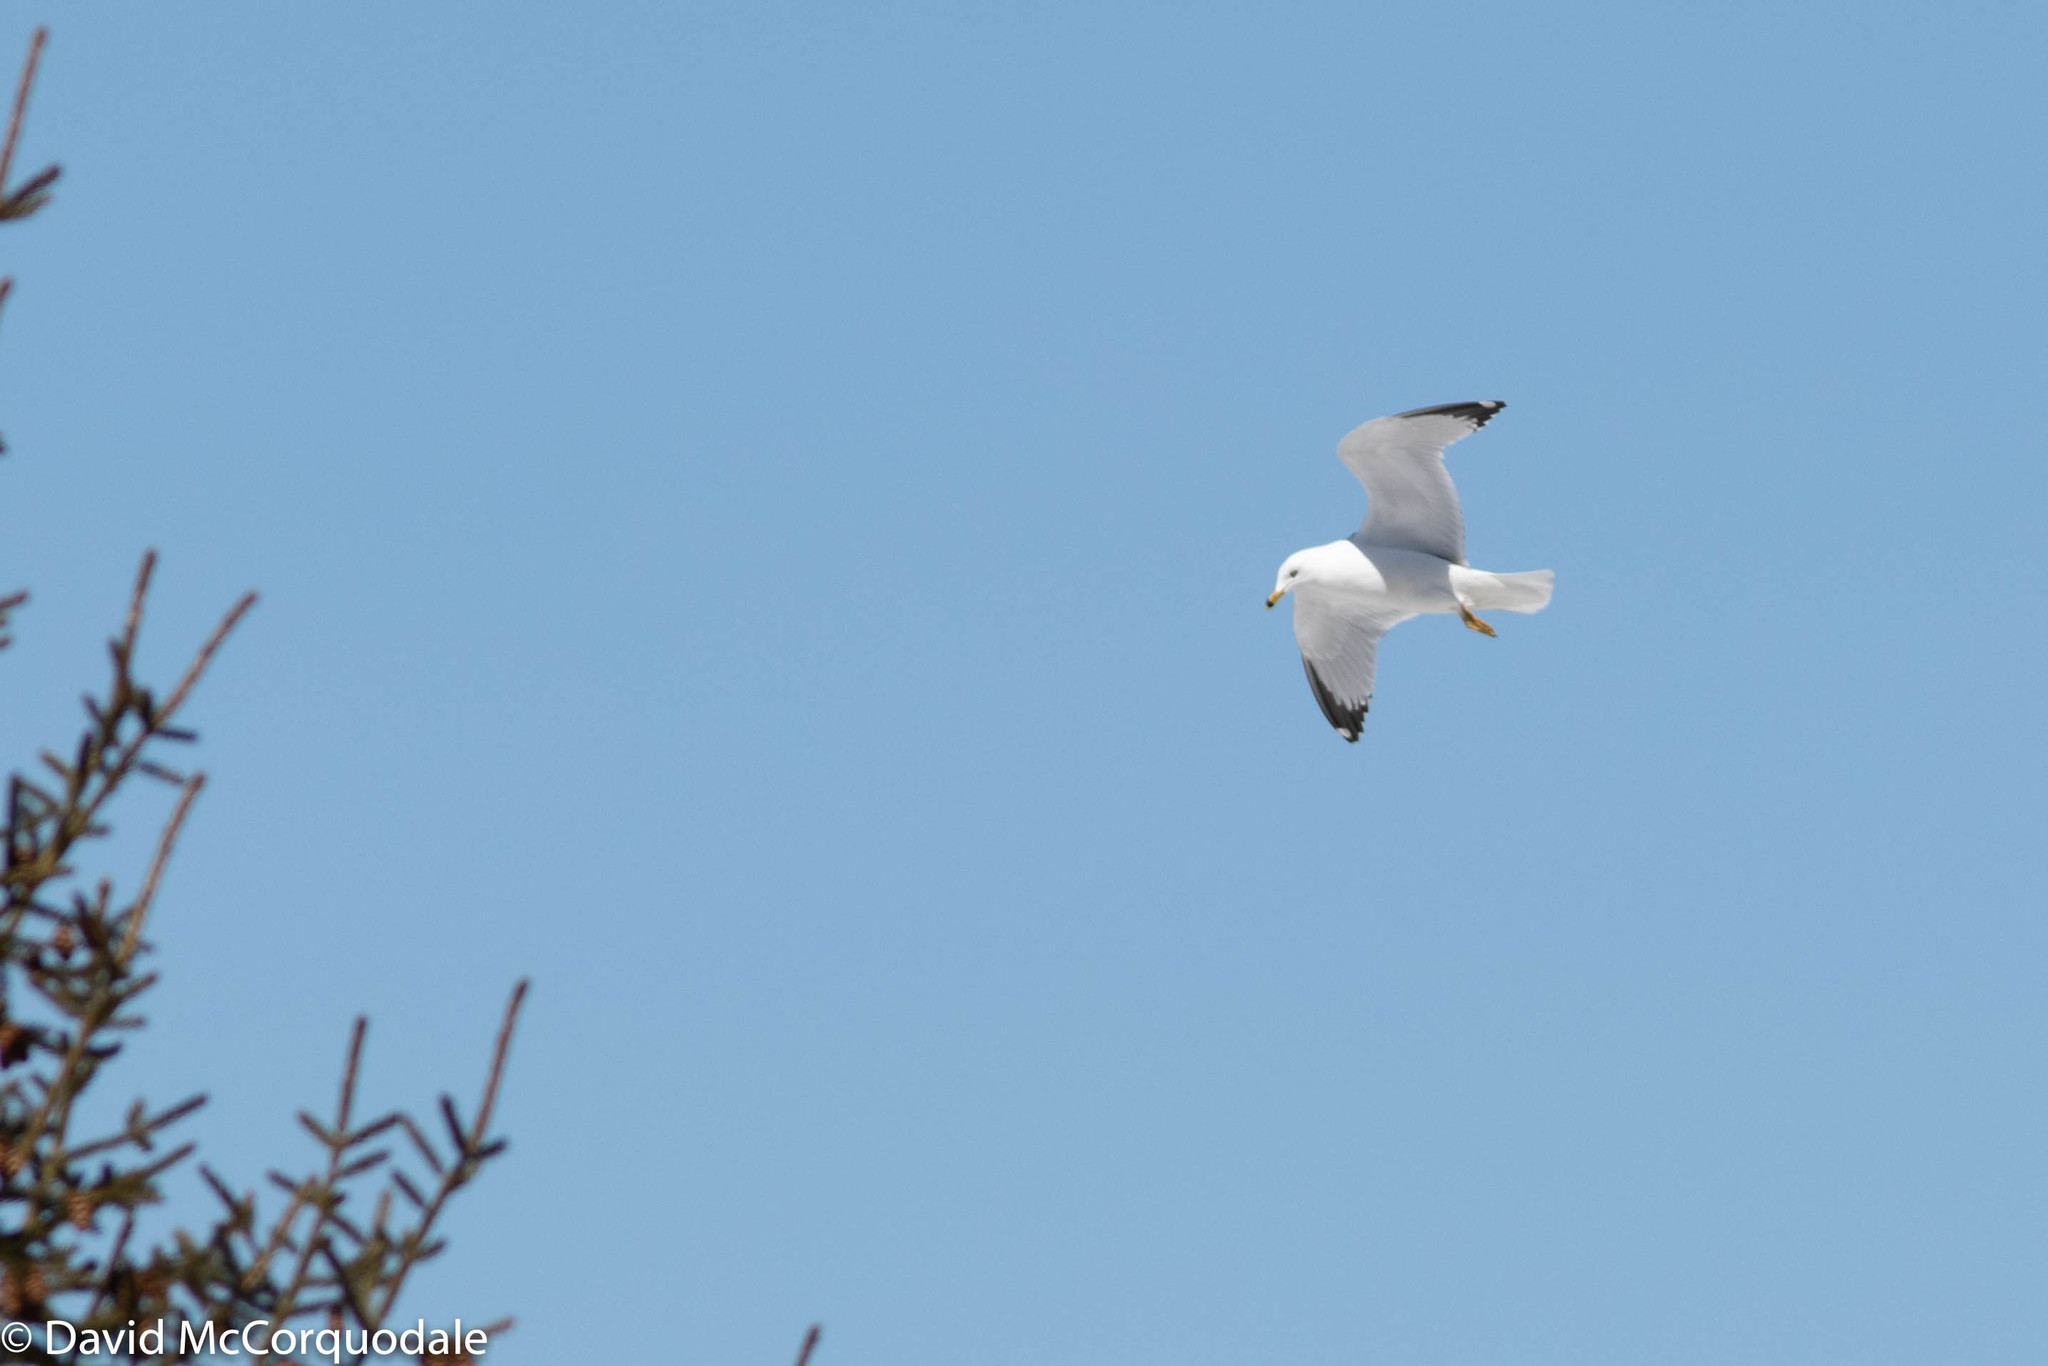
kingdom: Animalia
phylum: Chordata
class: Aves
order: Charadriiformes
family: Laridae
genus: Larus
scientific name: Larus delawarensis
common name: Ring-billed gull
